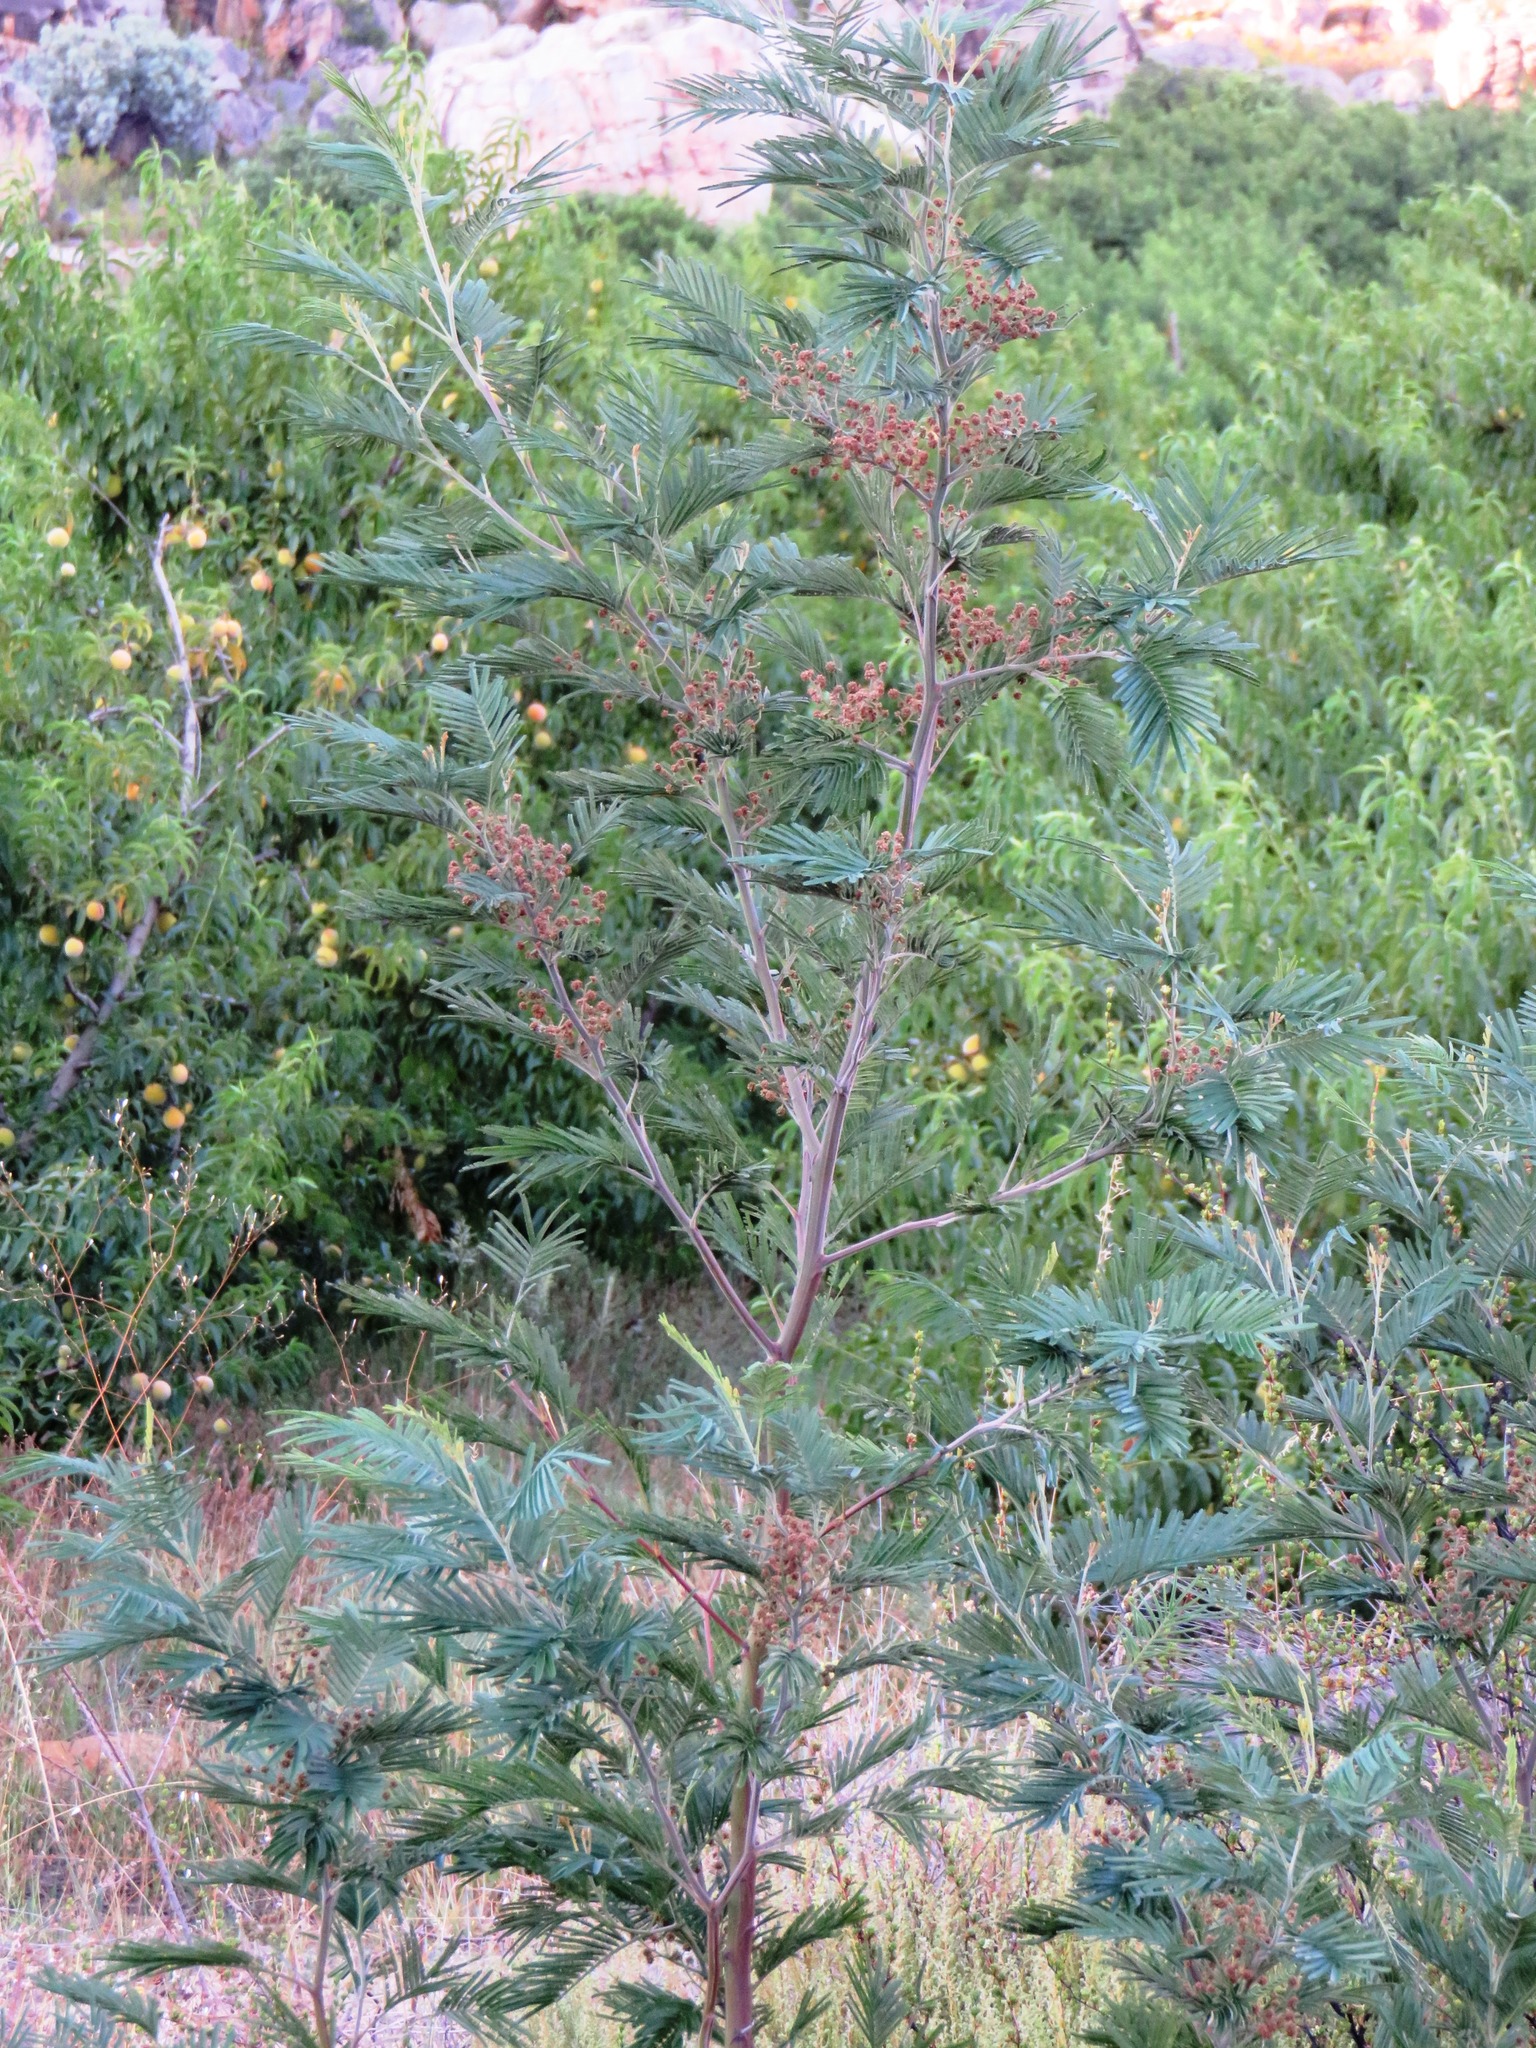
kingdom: Plantae
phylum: Tracheophyta
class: Magnoliopsida
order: Fabales
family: Fabaceae
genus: Acacia
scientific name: Acacia mearnsii
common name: Black wattle
